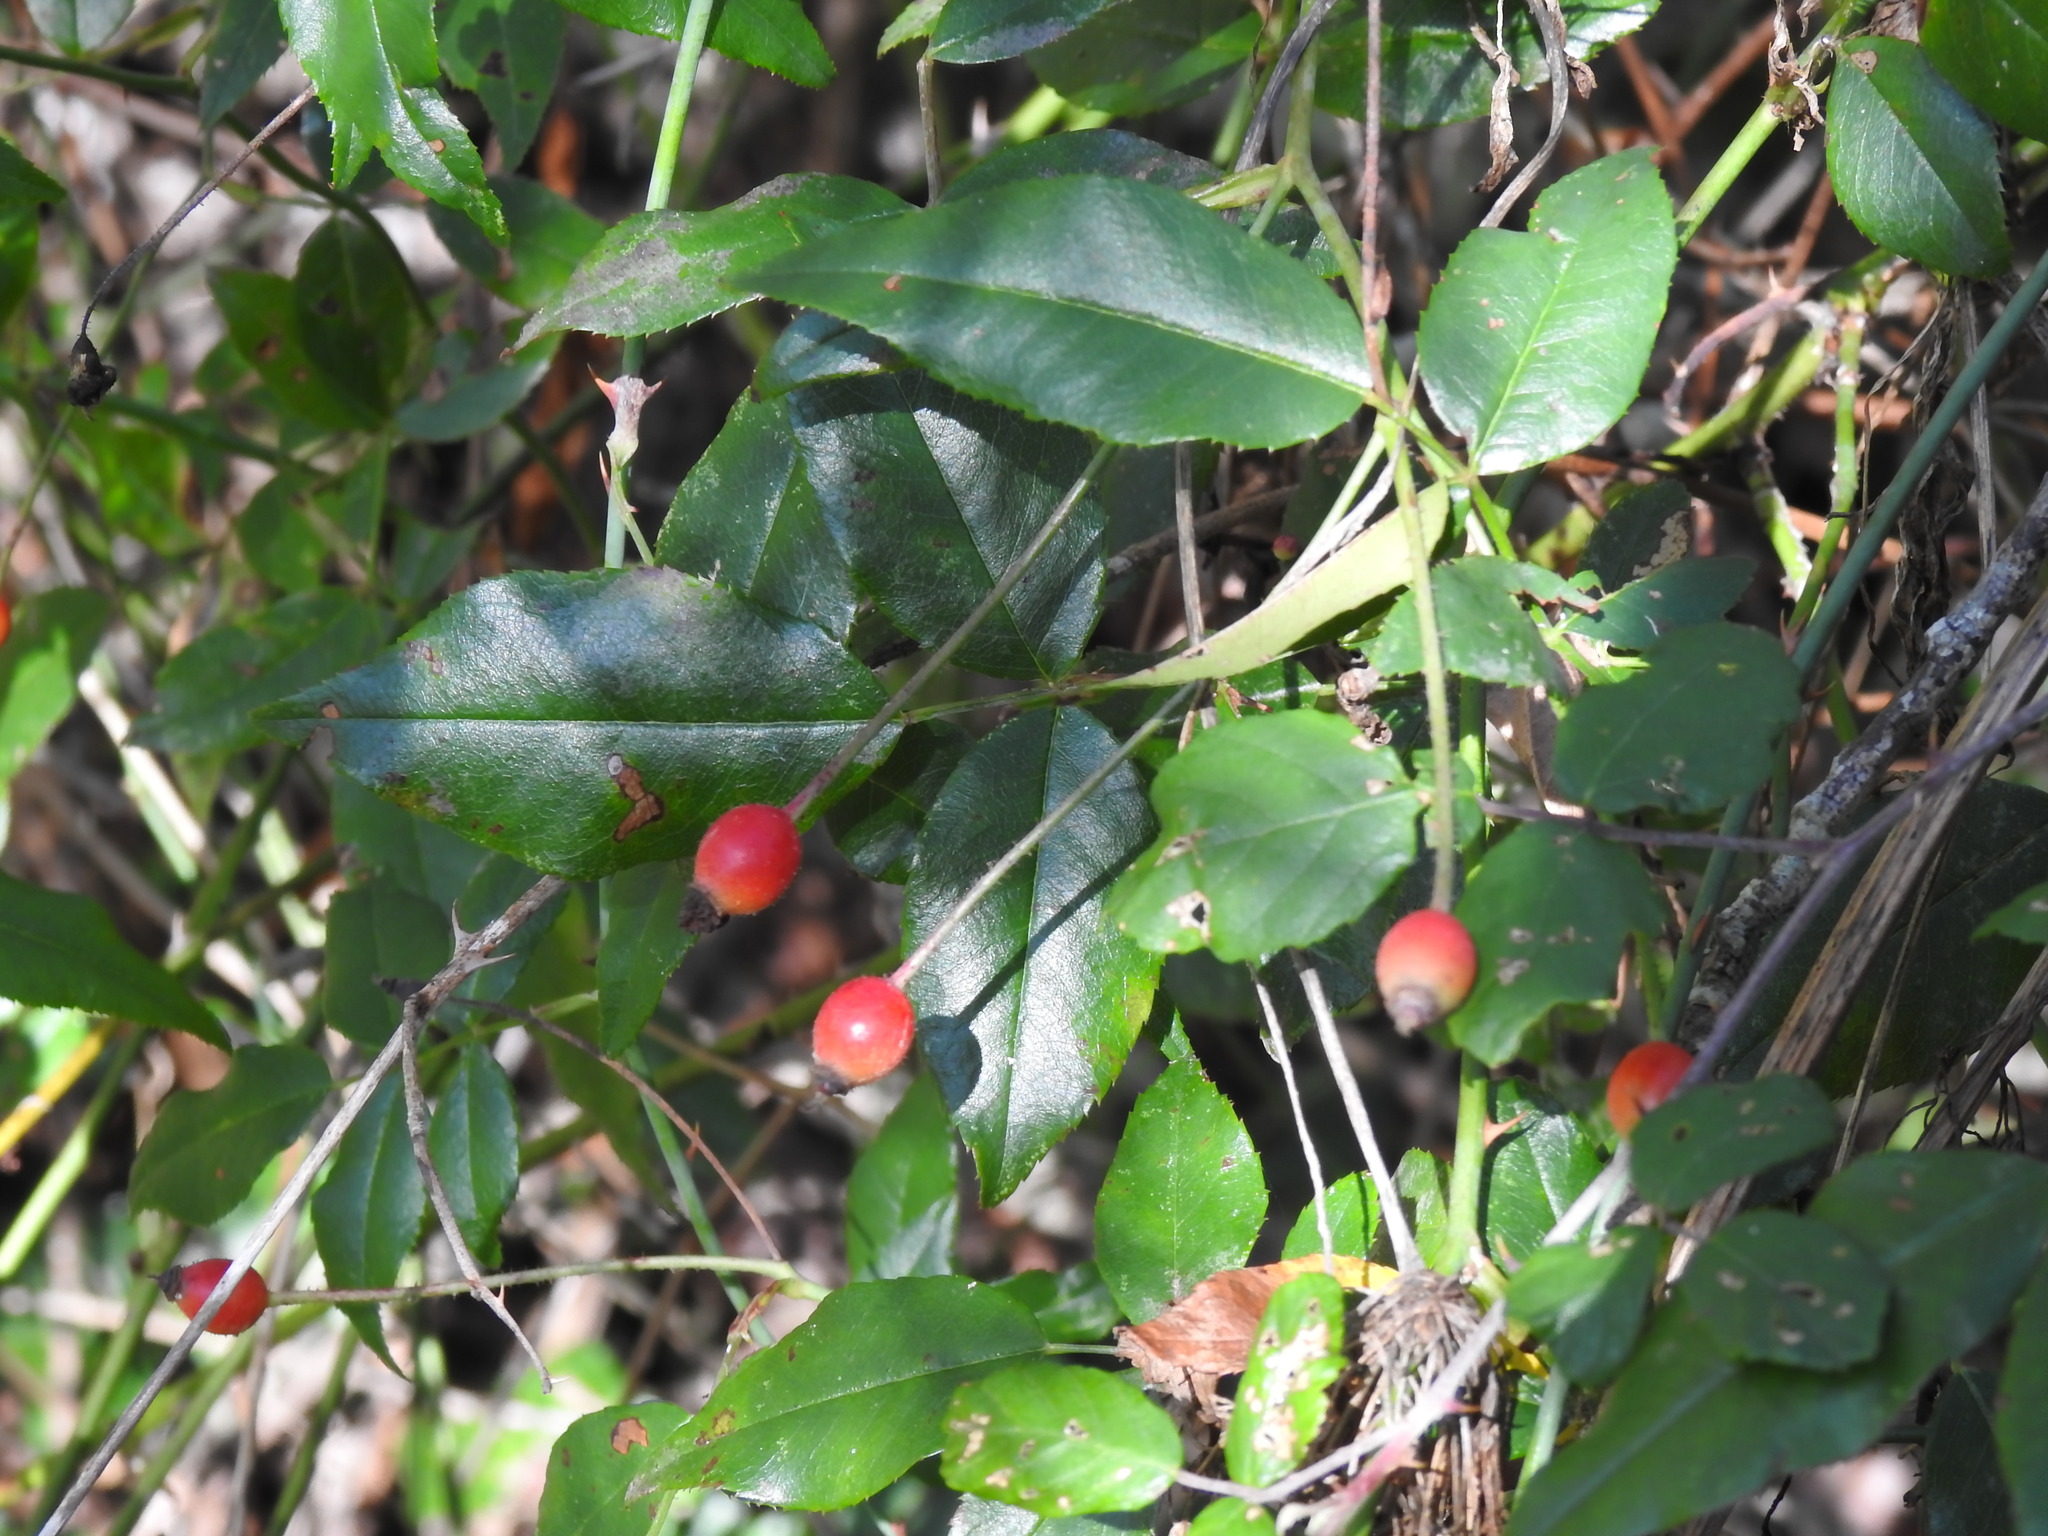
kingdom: Plantae
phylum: Tracheophyta
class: Magnoliopsida
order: Rosales
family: Rosaceae
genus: Rosa
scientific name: Rosa sempervirens
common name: Evergreen rose
